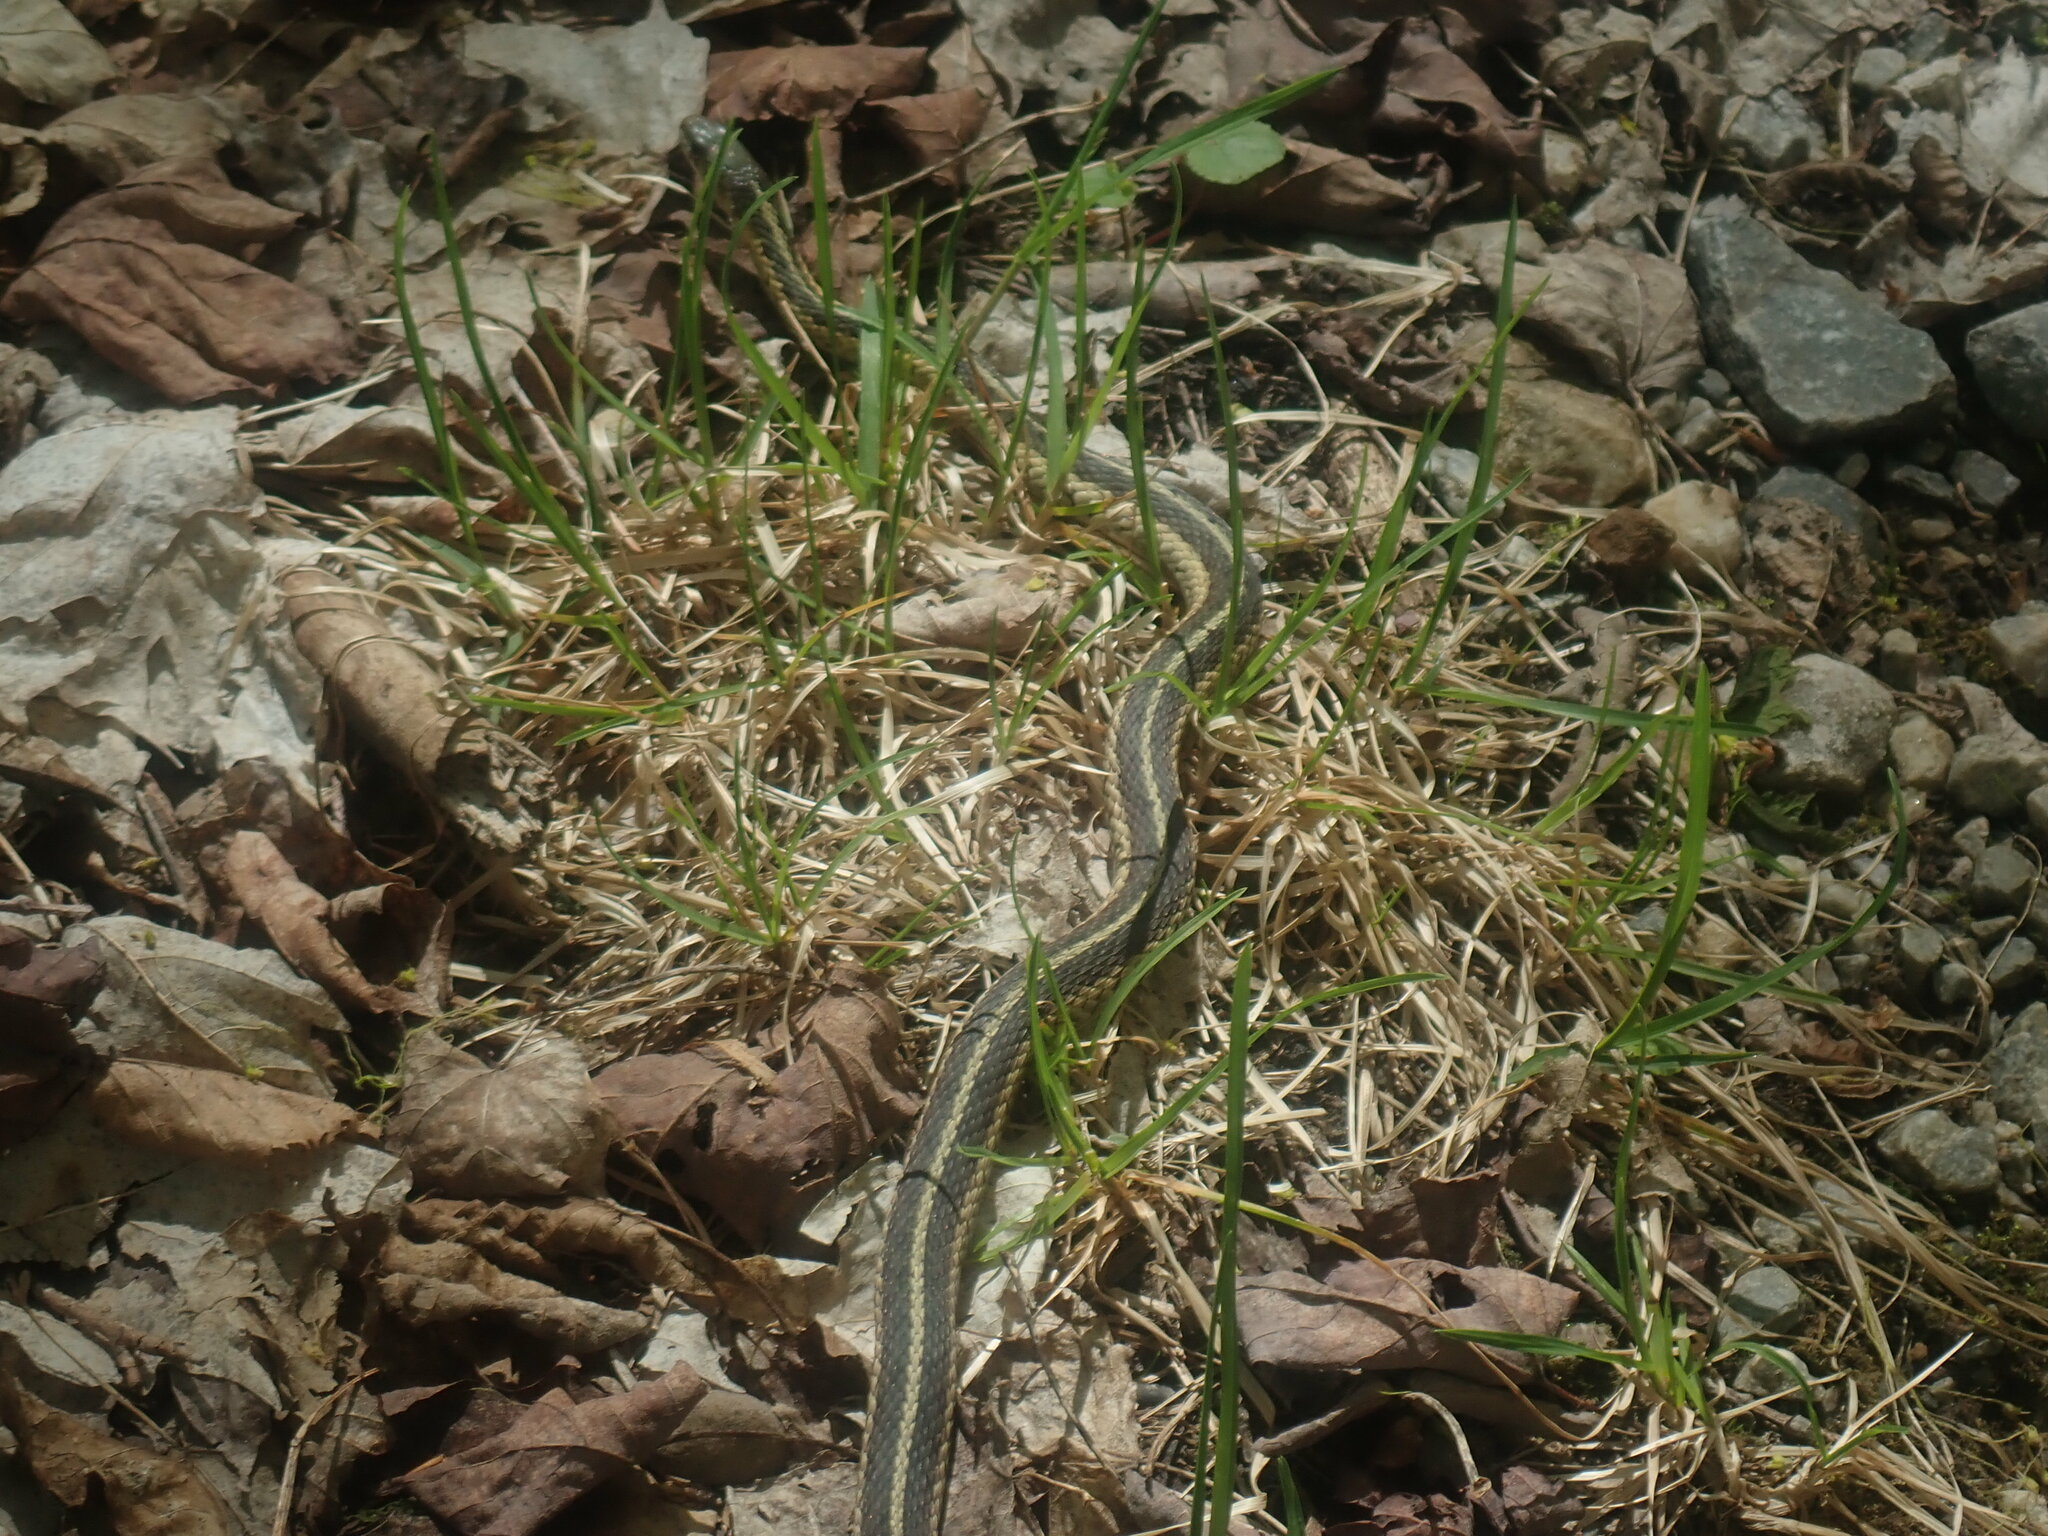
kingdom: Animalia
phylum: Chordata
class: Squamata
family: Colubridae
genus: Thamnophis
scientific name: Thamnophis sirtalis
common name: Common garter snake
